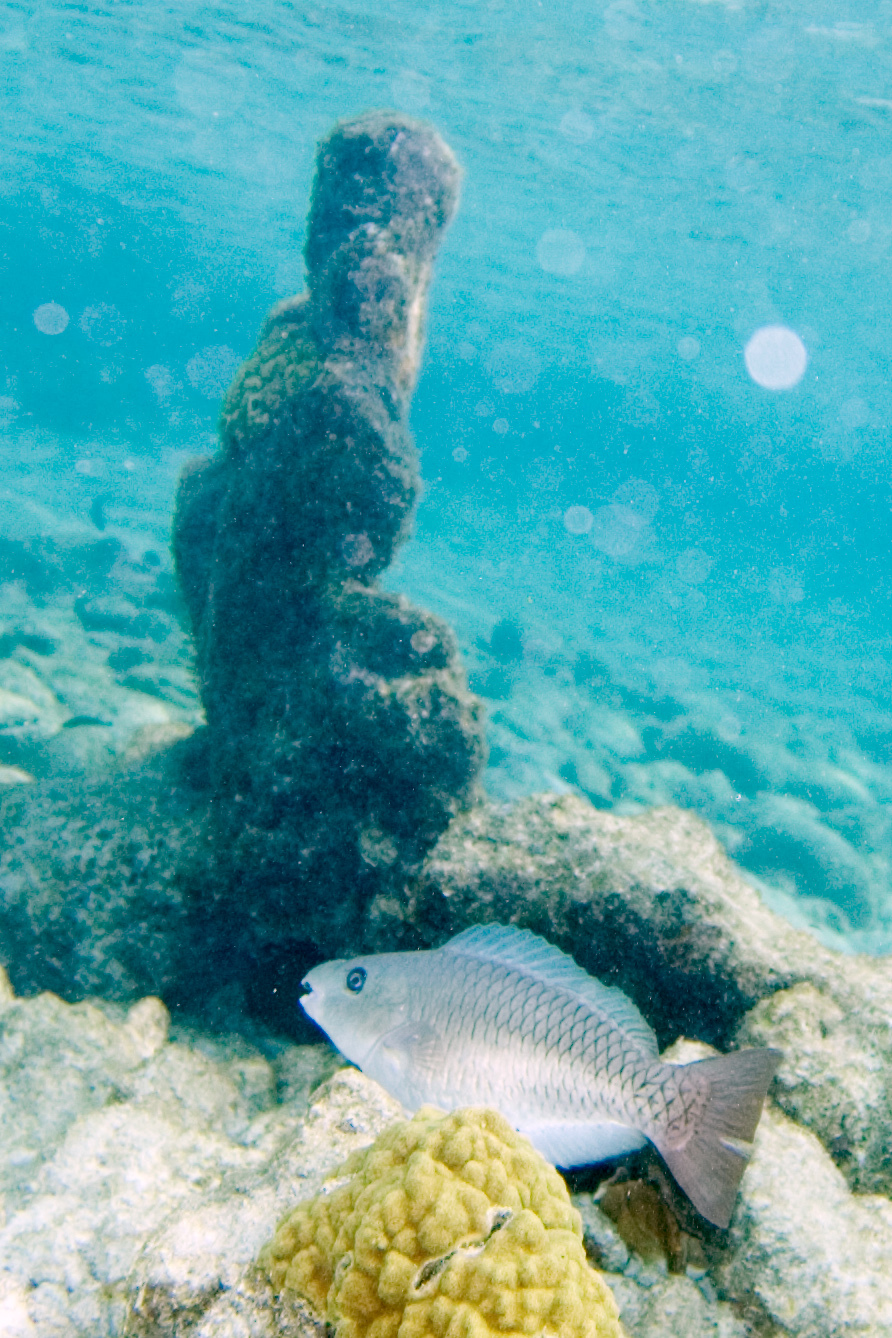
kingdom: Animalia
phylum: Chordata
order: Perciformes
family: Scaridae
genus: Scarus
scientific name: Scarus vetula
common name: Queen parrotfish
